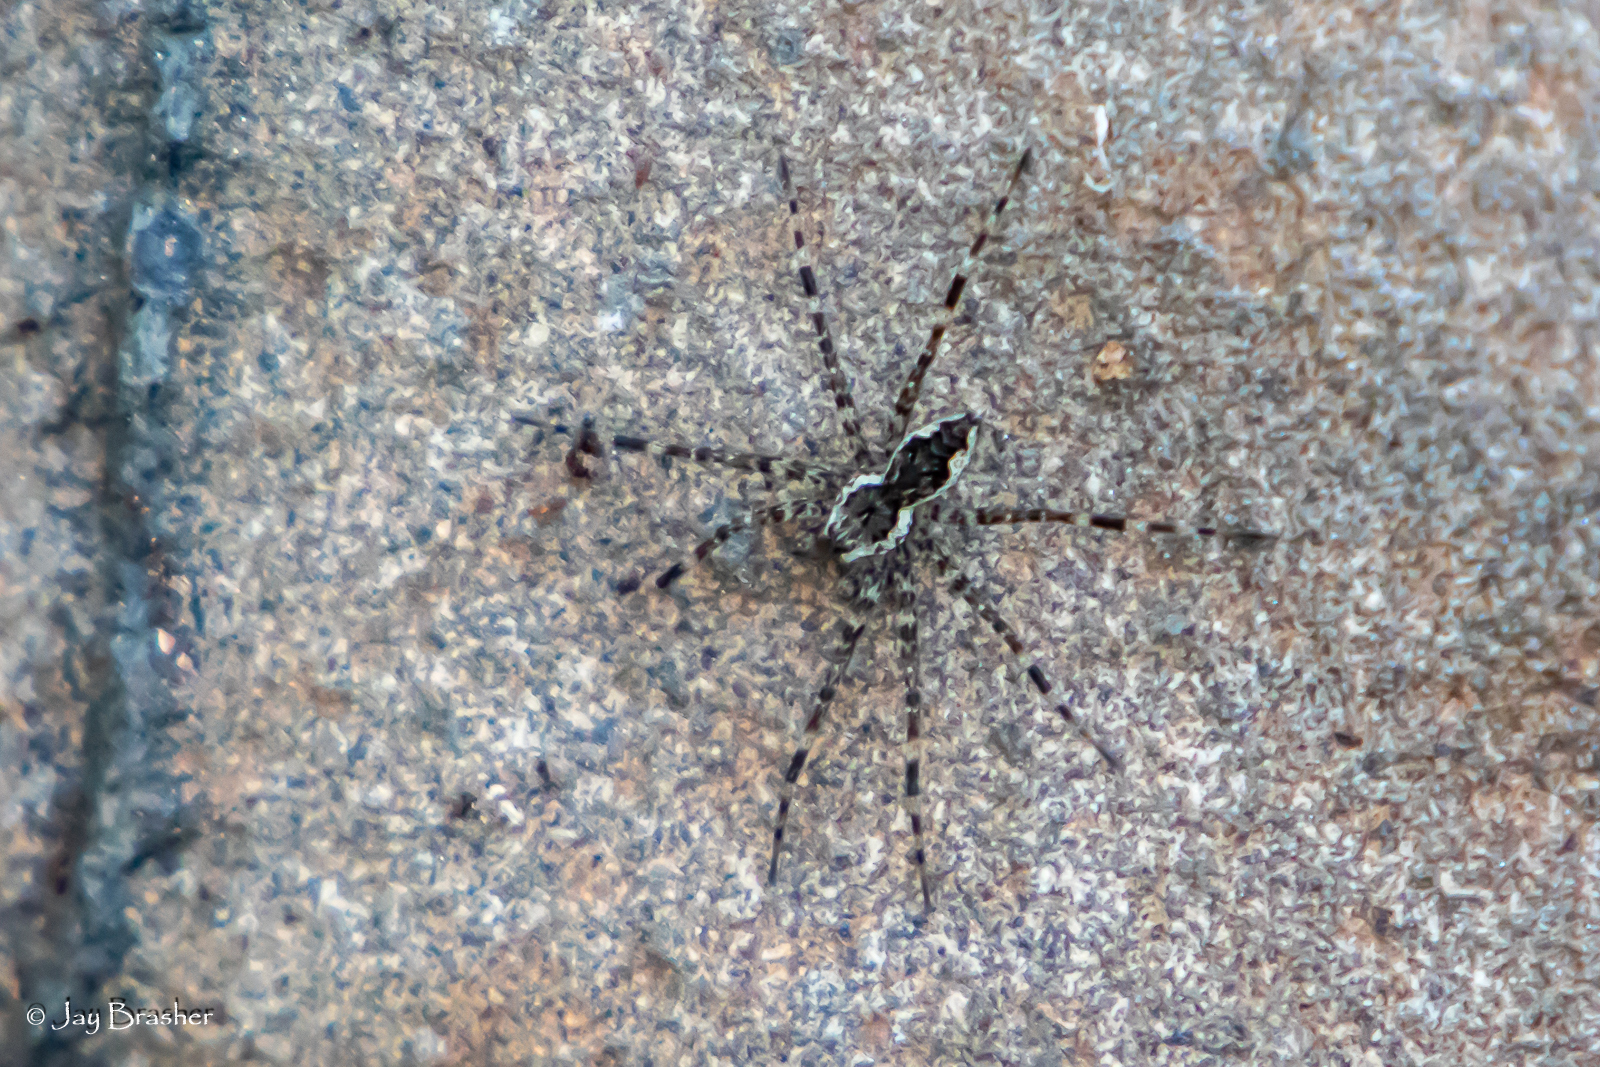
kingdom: Animalia
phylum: Arthropoda
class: Arachnida
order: Araneae
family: Pisauridae
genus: Dolomedes
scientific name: Dolomedes tenebrosus
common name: Dark fishing spider
